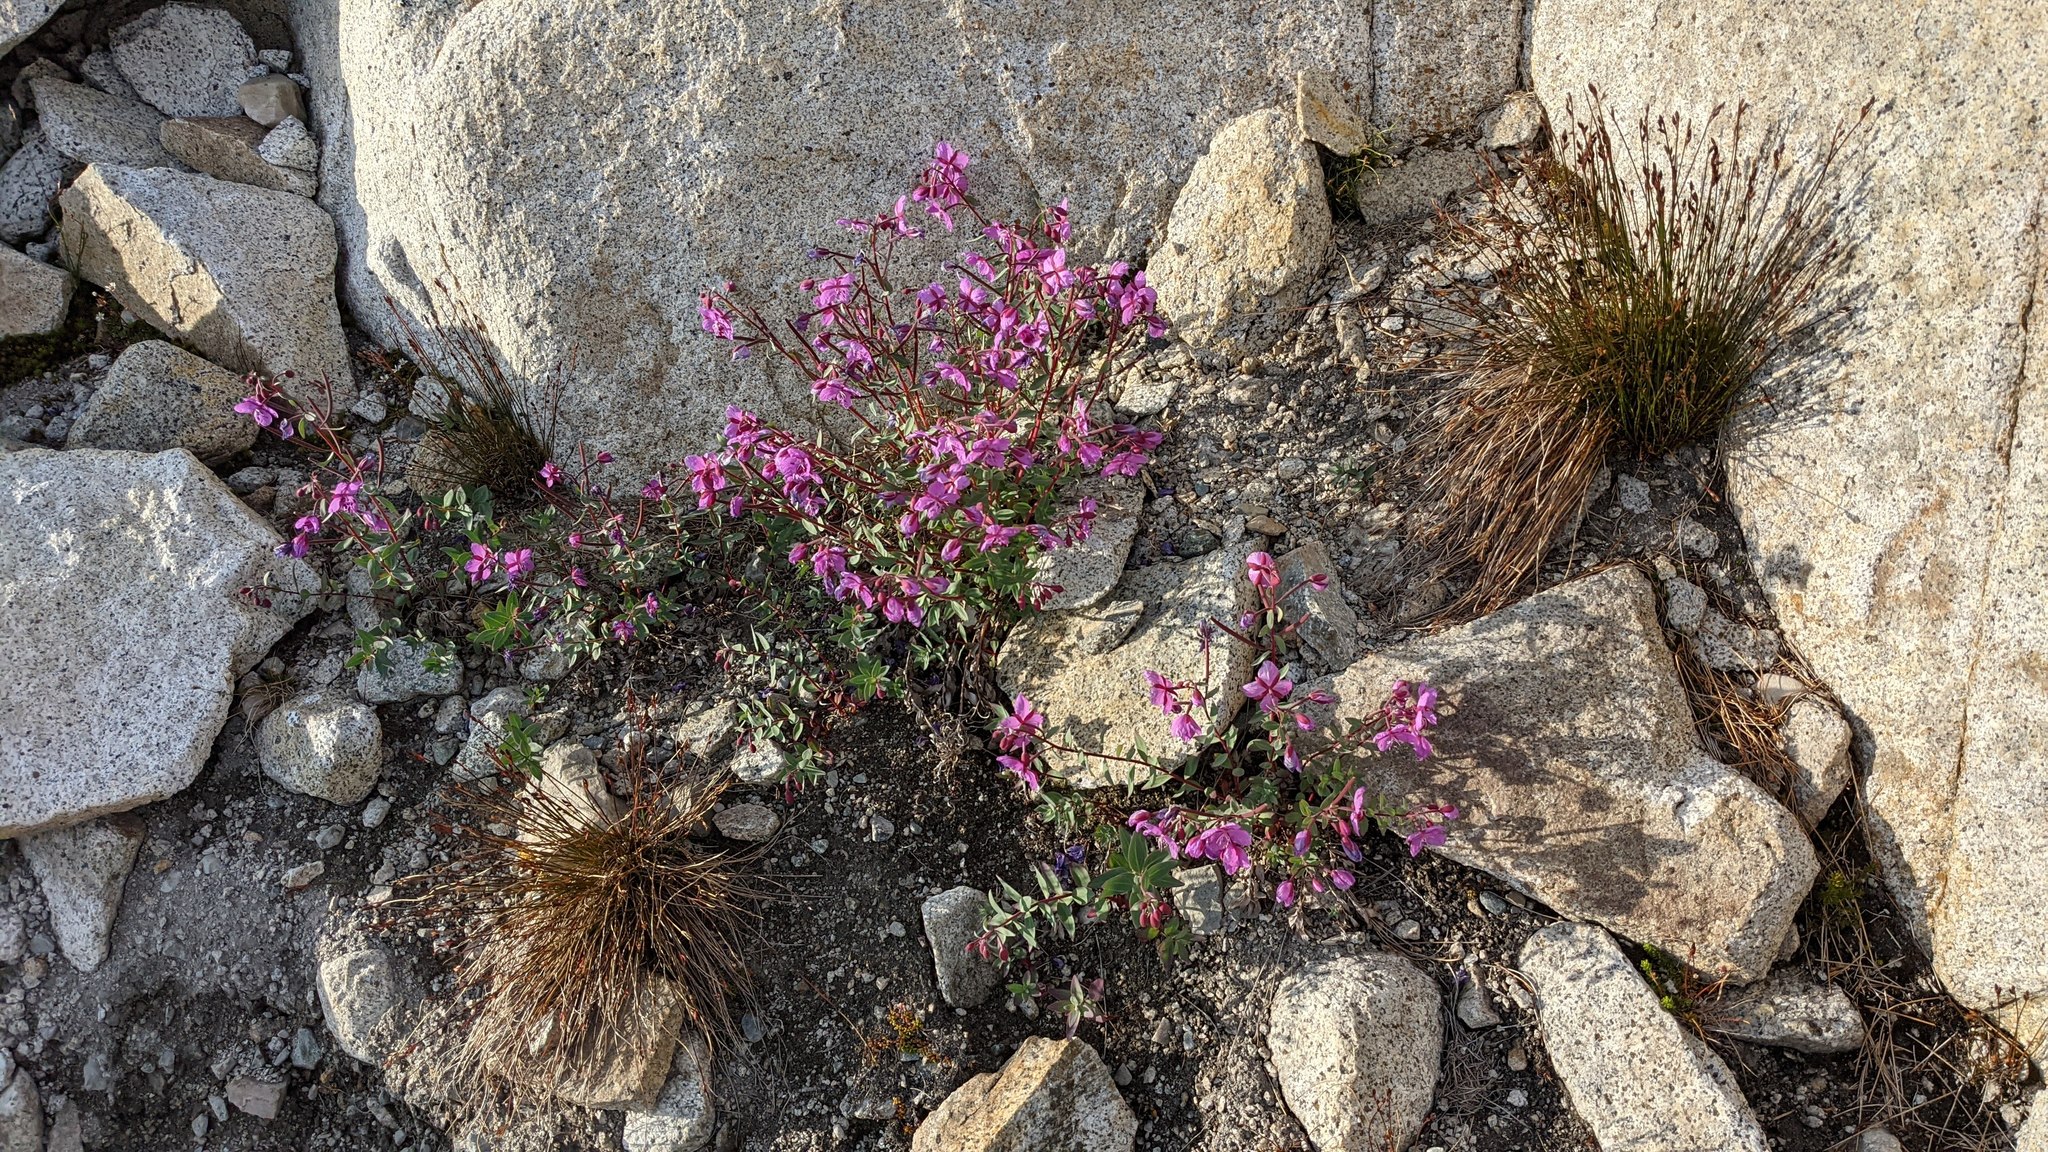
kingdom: Plantae
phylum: Tracheophyta
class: Magnoliopsida
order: Myrtales
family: Onagraceae
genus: Chamaenerion
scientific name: Chamaenerion latifolium
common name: Dwarf fireweed
